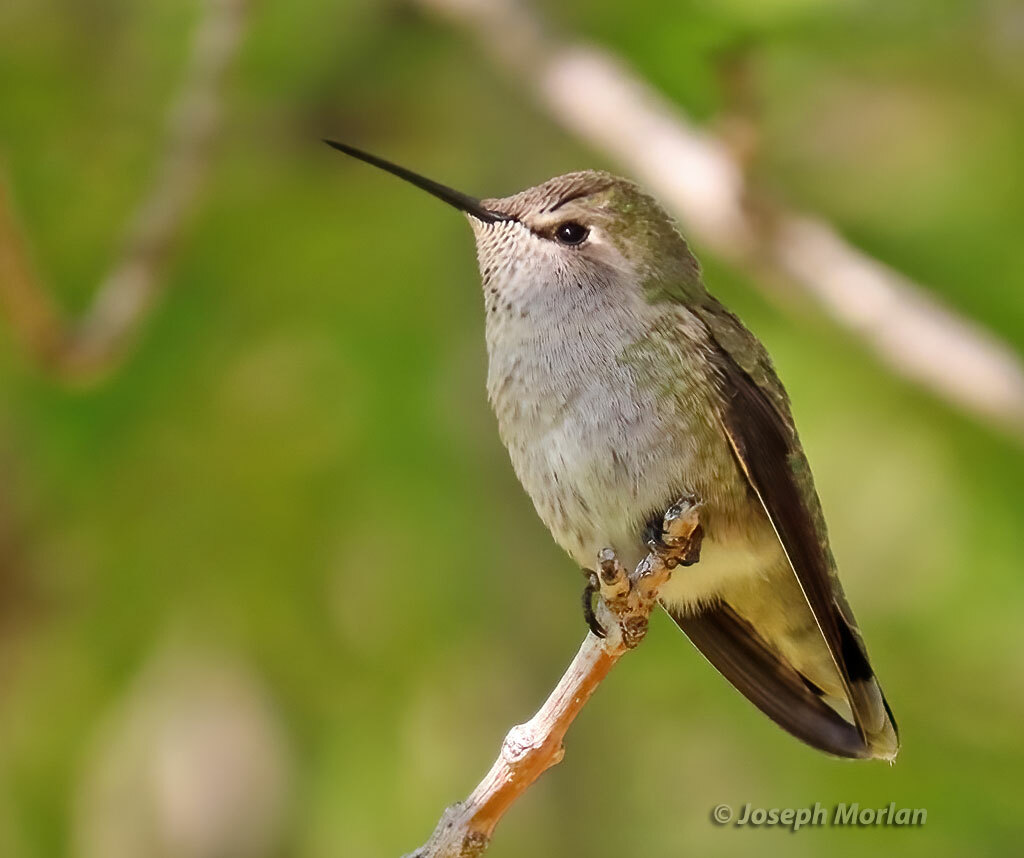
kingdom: Animalia
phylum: Chordata
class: Aves
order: Apodiformes
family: Trochilidae
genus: Calypte
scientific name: Calypte anna
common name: Anna's hummingbird
